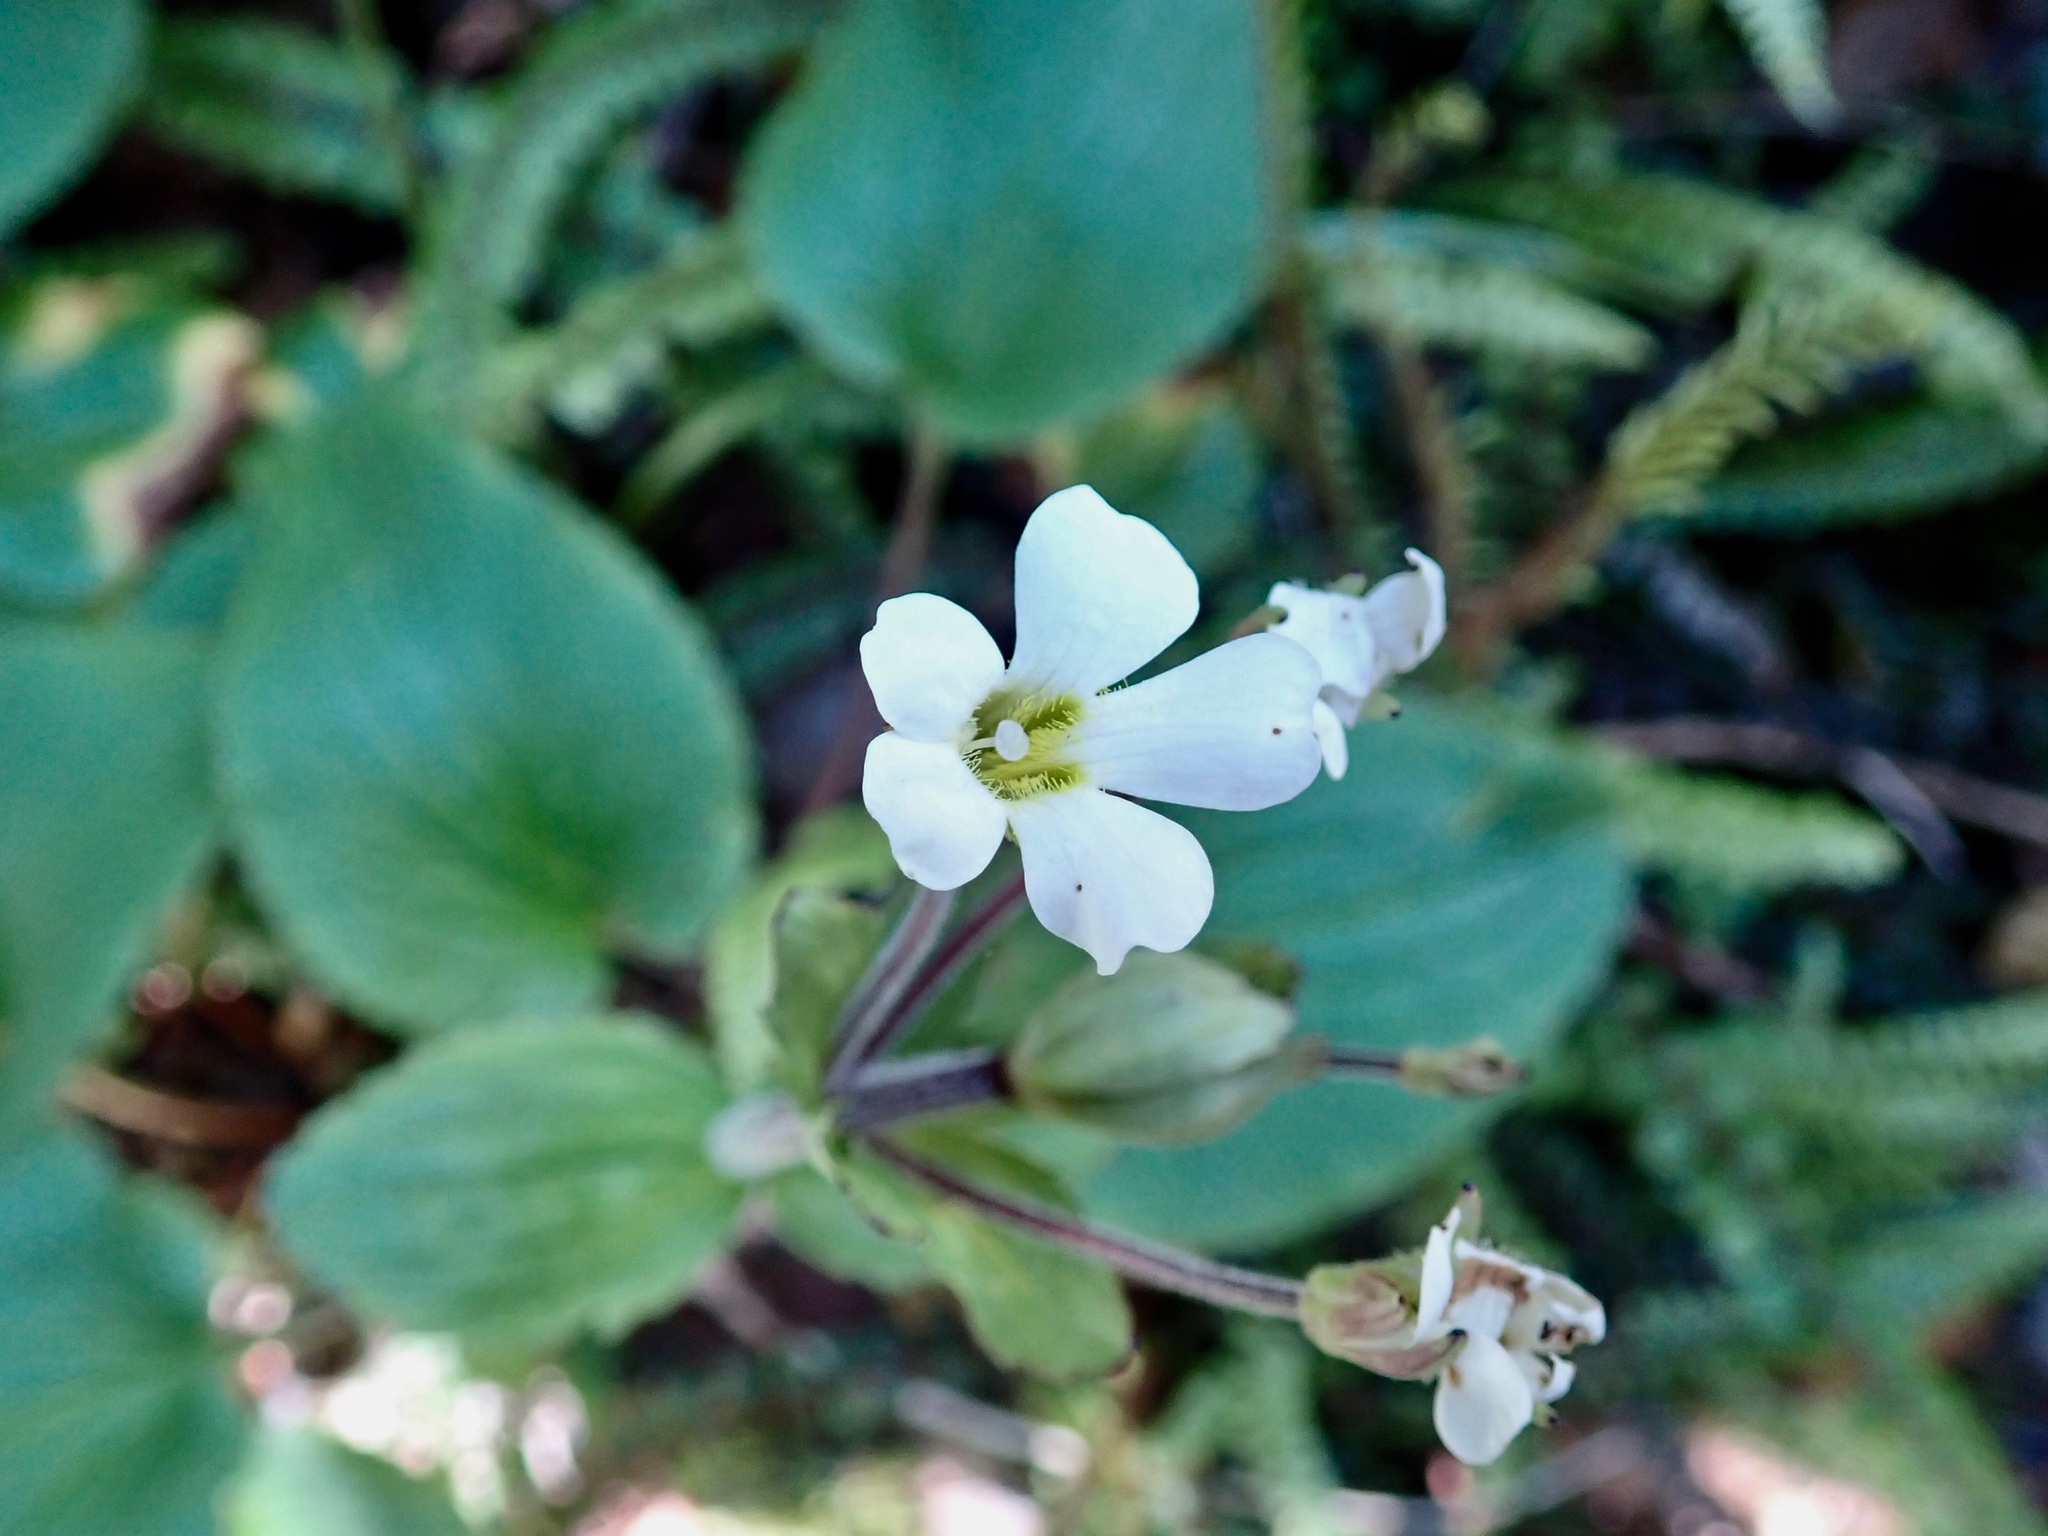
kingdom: Plantae
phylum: Tracheophyta
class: Magnoliopsida
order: Lamiales
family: Plantaginaceae
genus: Ourisia
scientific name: Ourisia macrophylla
